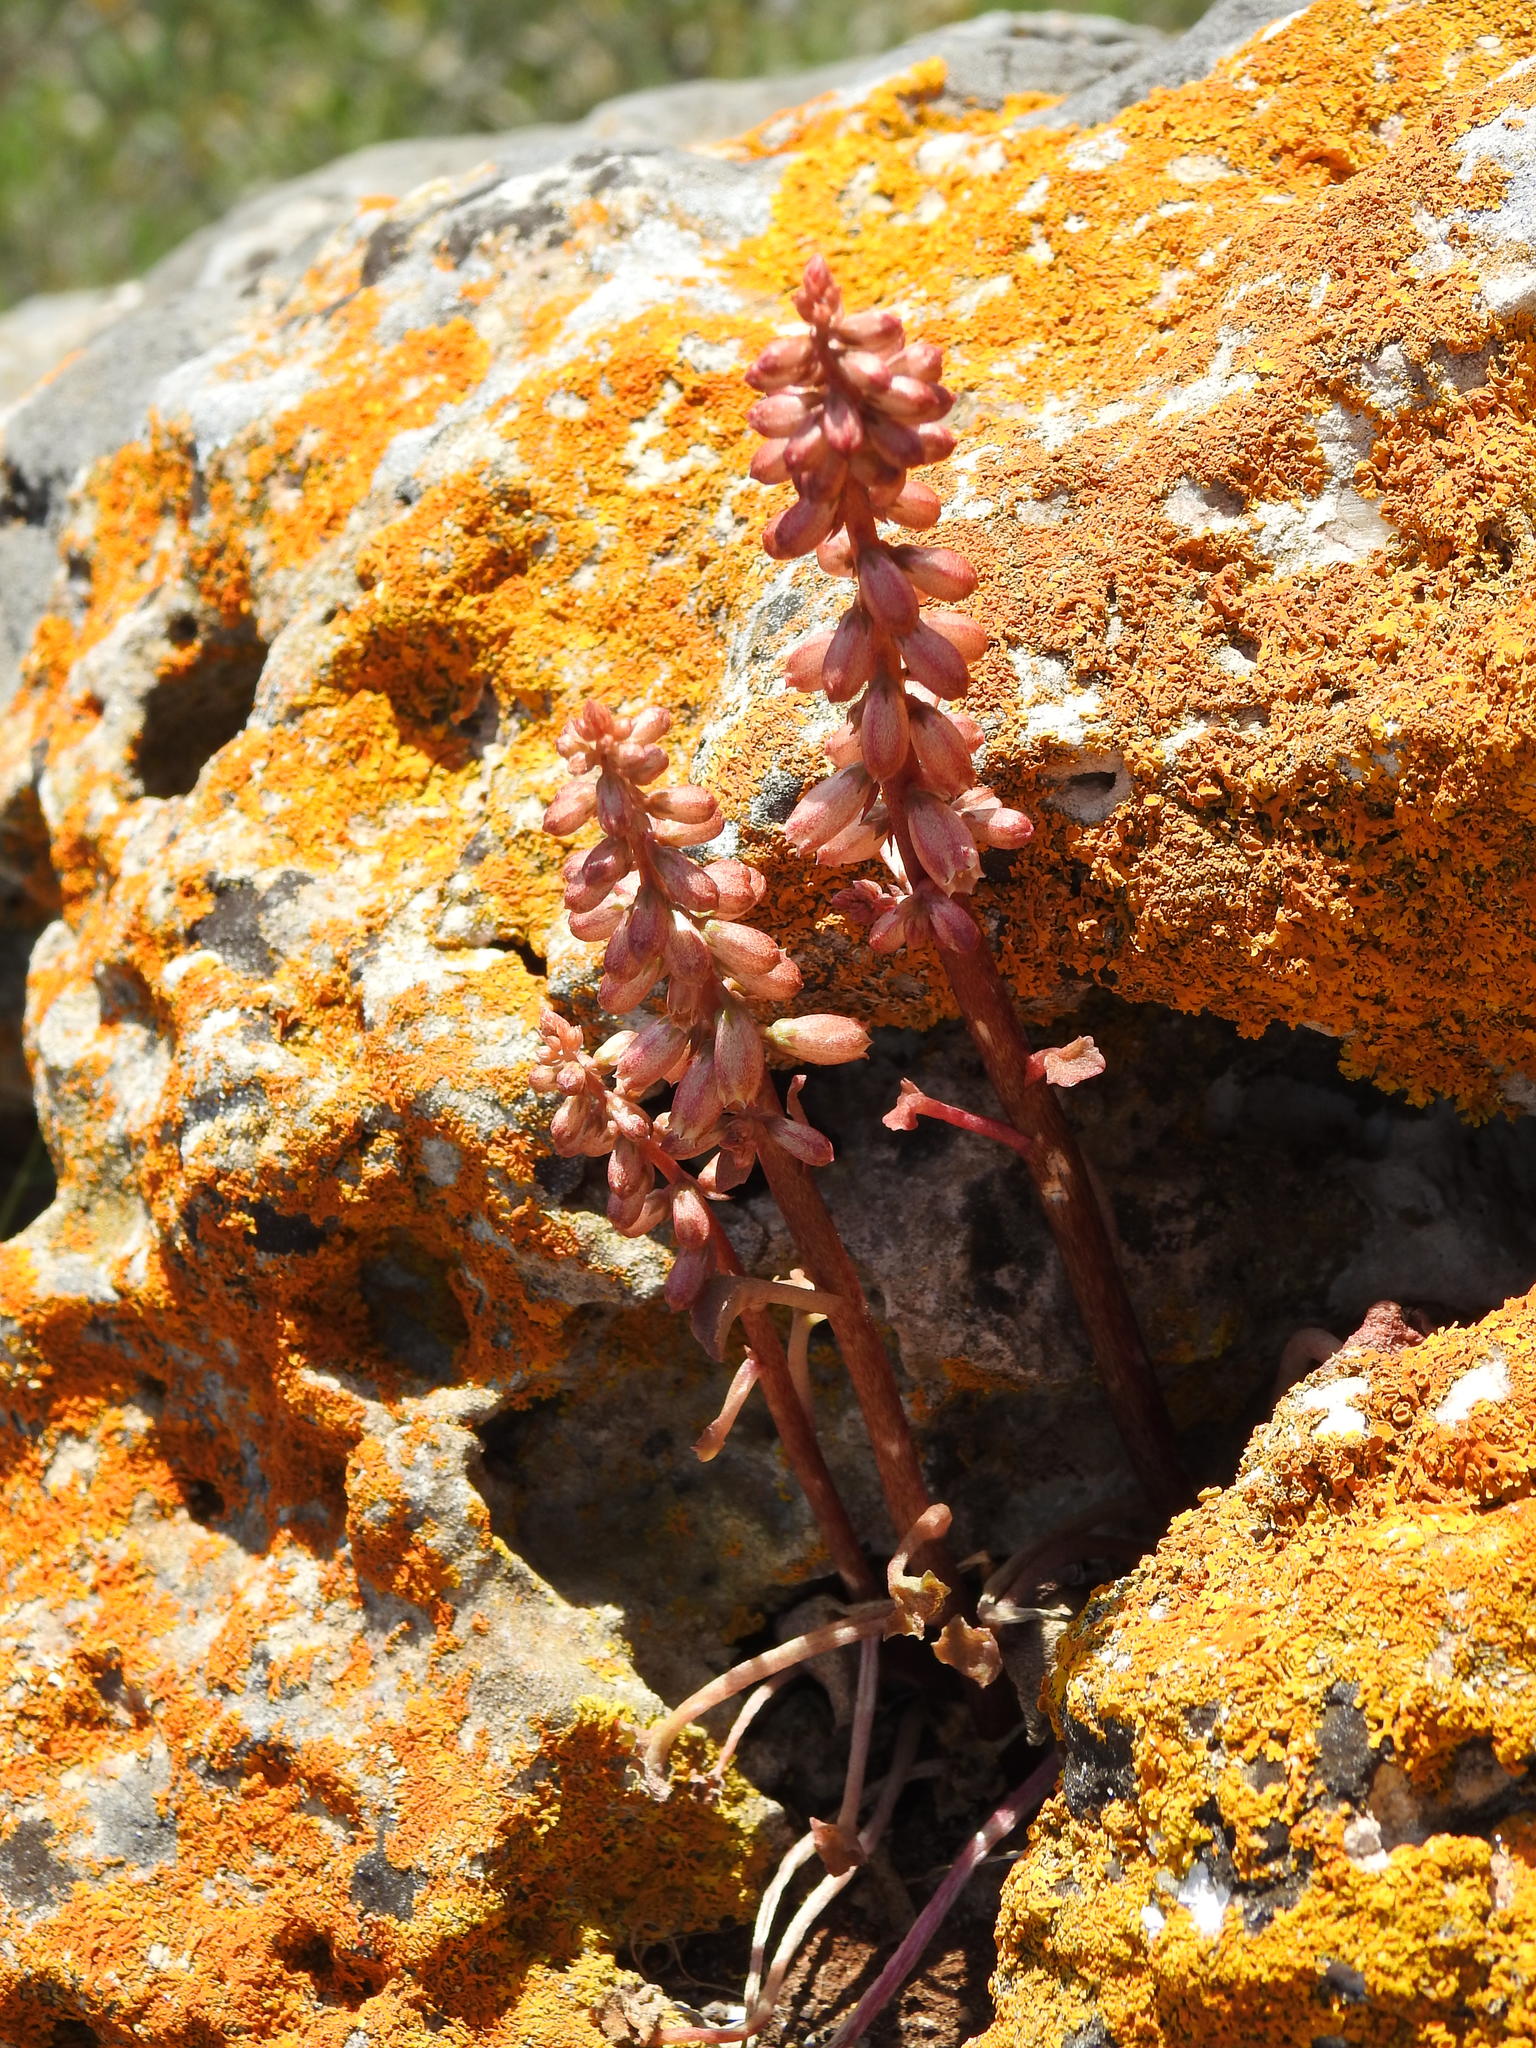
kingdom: Plantae
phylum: Tracheophyta
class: Magnoliopsida
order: Saxifragales
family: Crassulaceae
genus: Umbilicus
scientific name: Umbilicus rupestris
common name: Navelwort
